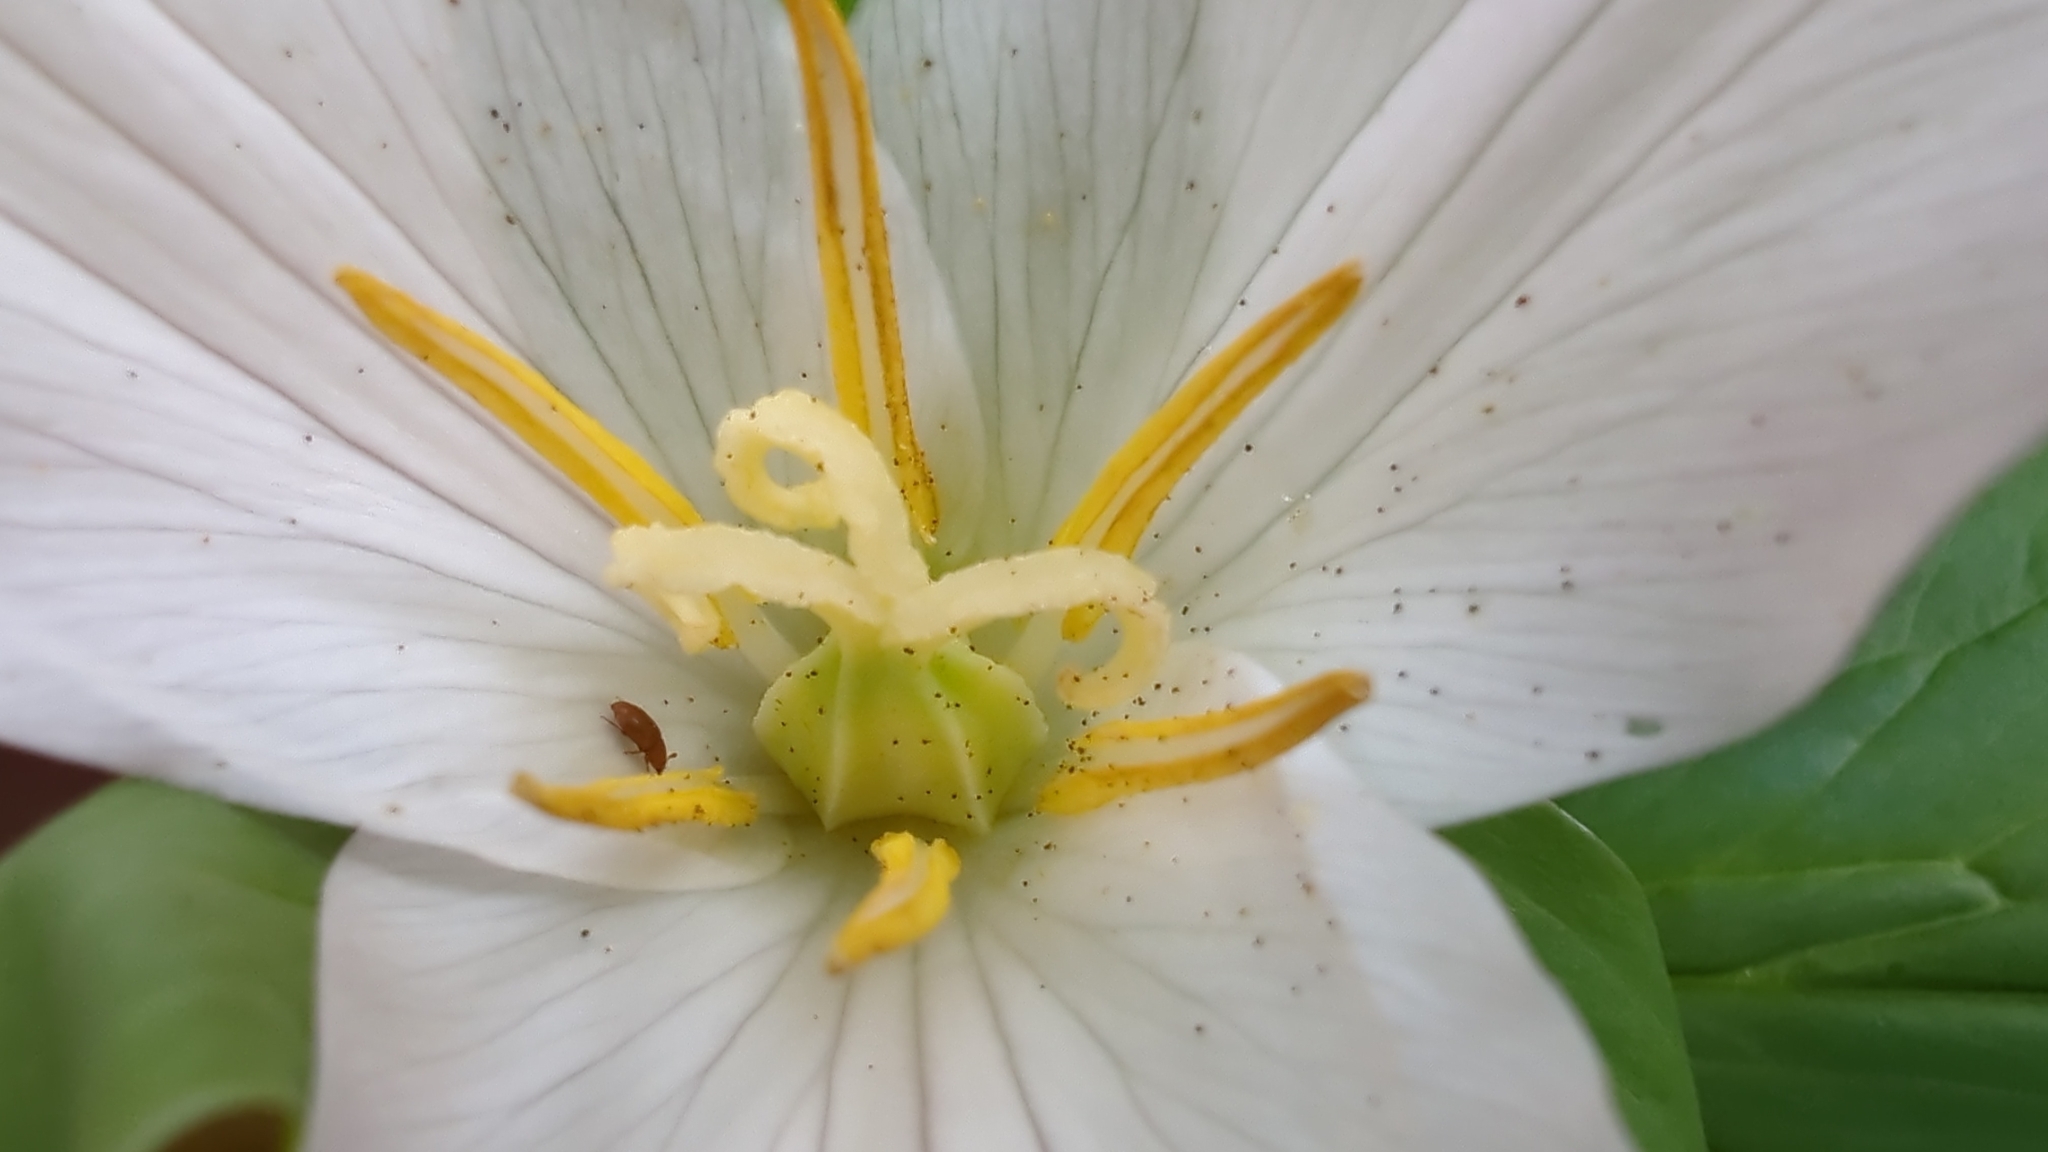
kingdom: Plantae
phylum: Tracheophyta
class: Liliopsida
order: Liliales
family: Melanthiaceae
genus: Trillium
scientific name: Trillium ovatum
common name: Pacific trillium
